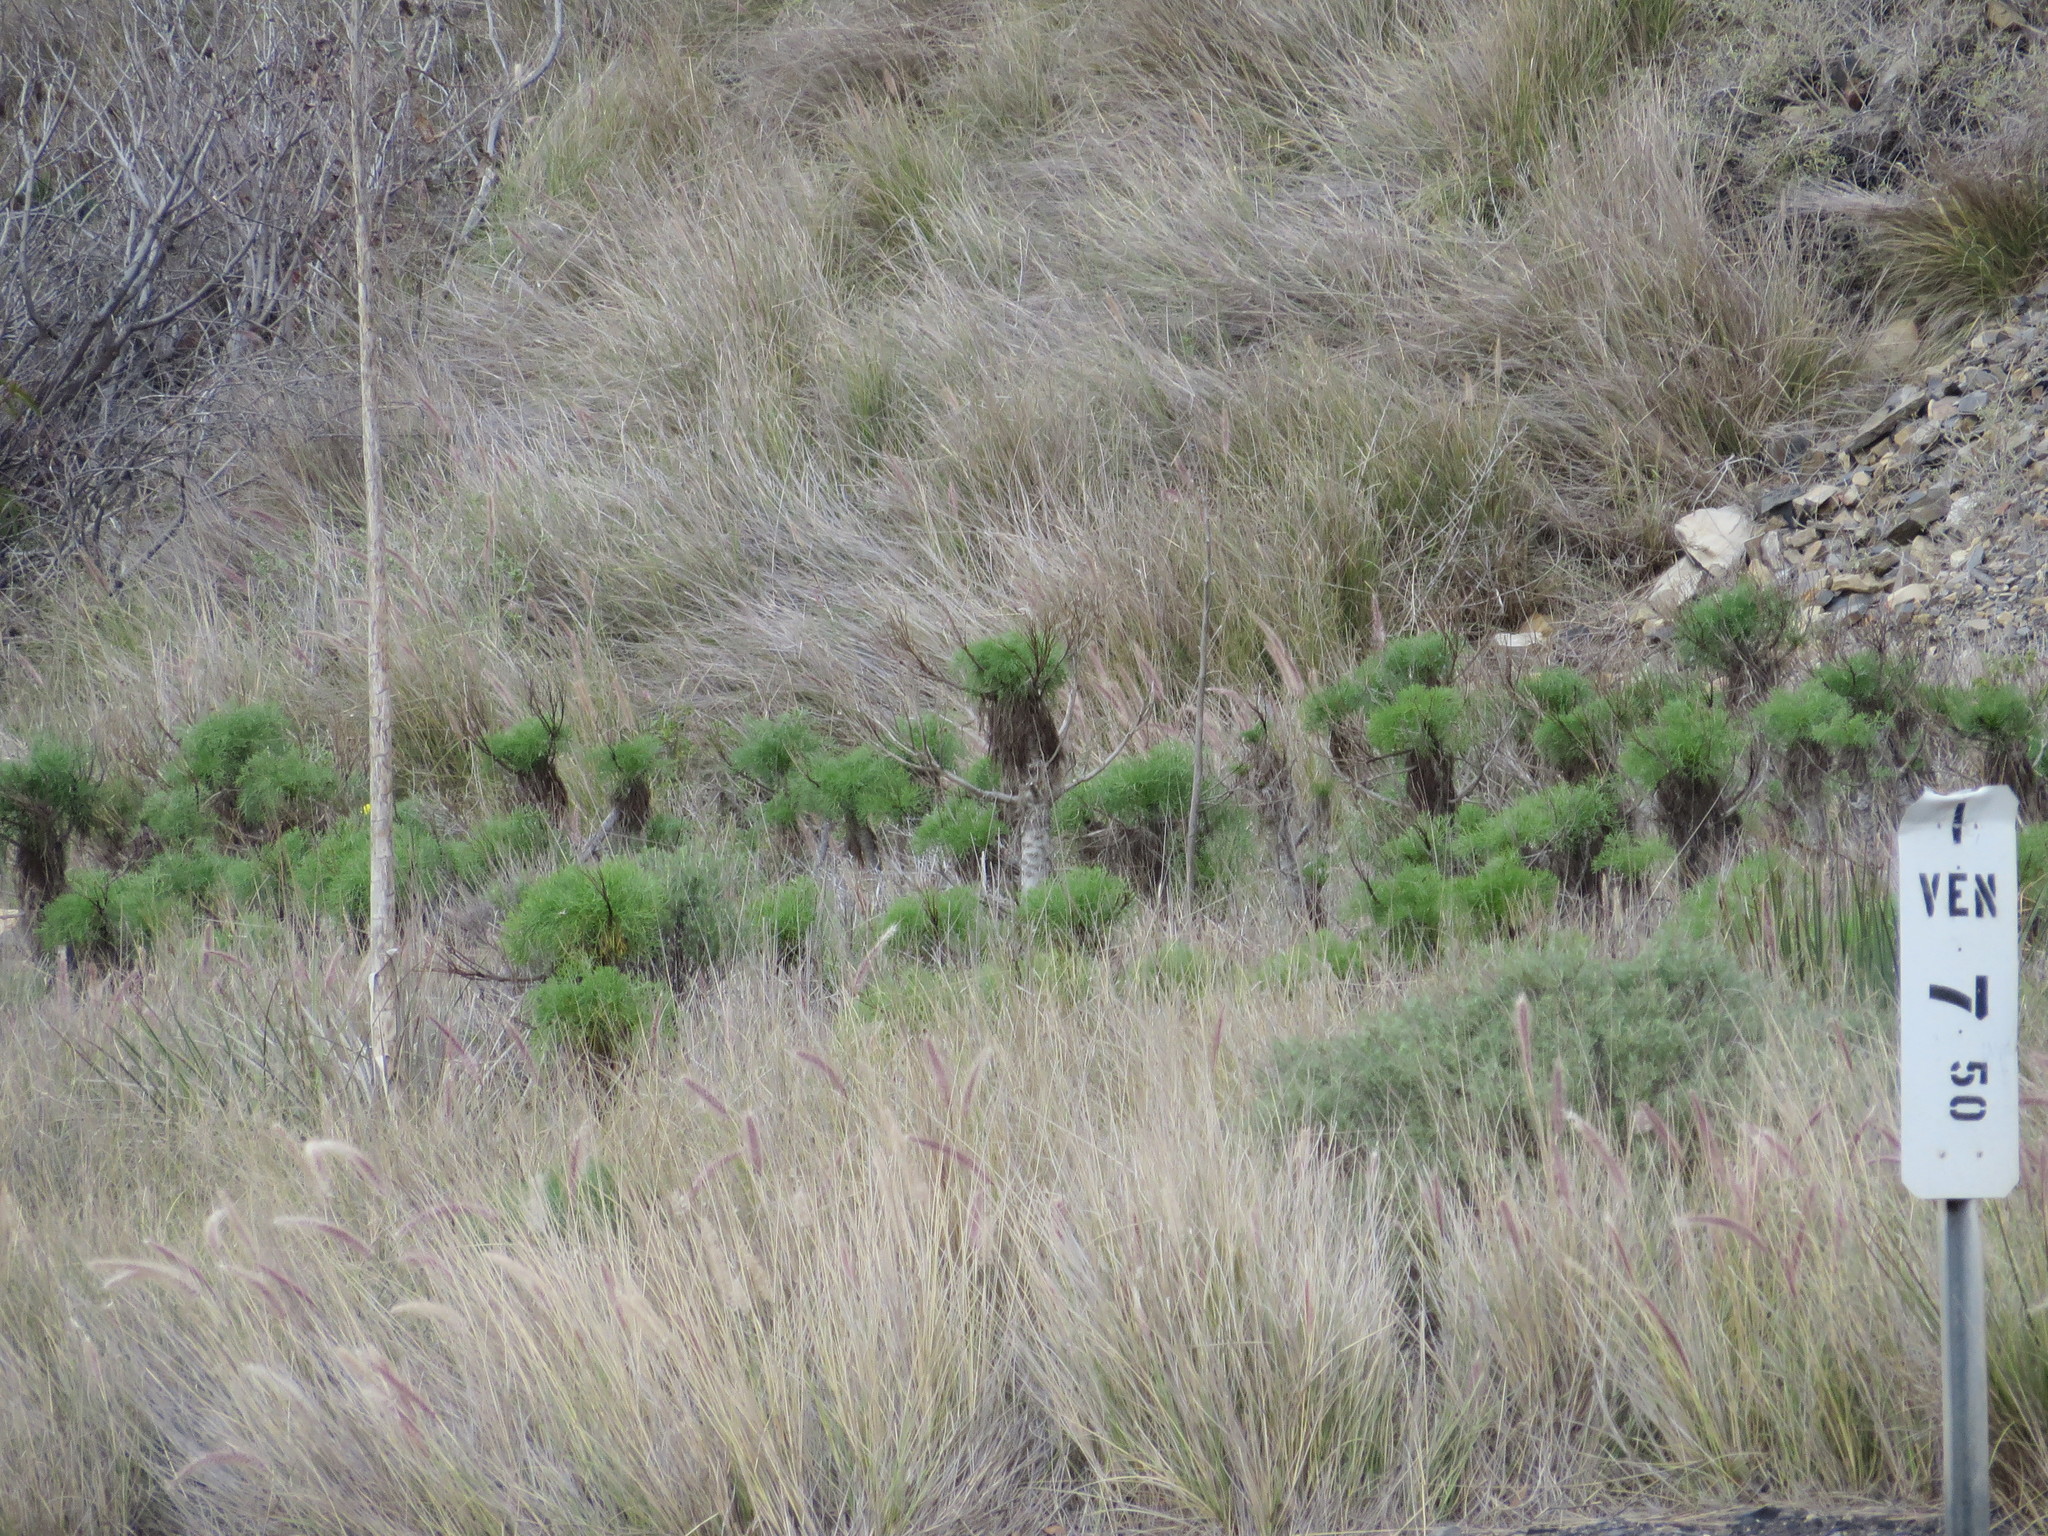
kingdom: Plantae
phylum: Tracheophyta
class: Magnoliopsida
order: Asterales
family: Asteraceae
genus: Coreopsis
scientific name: Coreopsis gigantea
